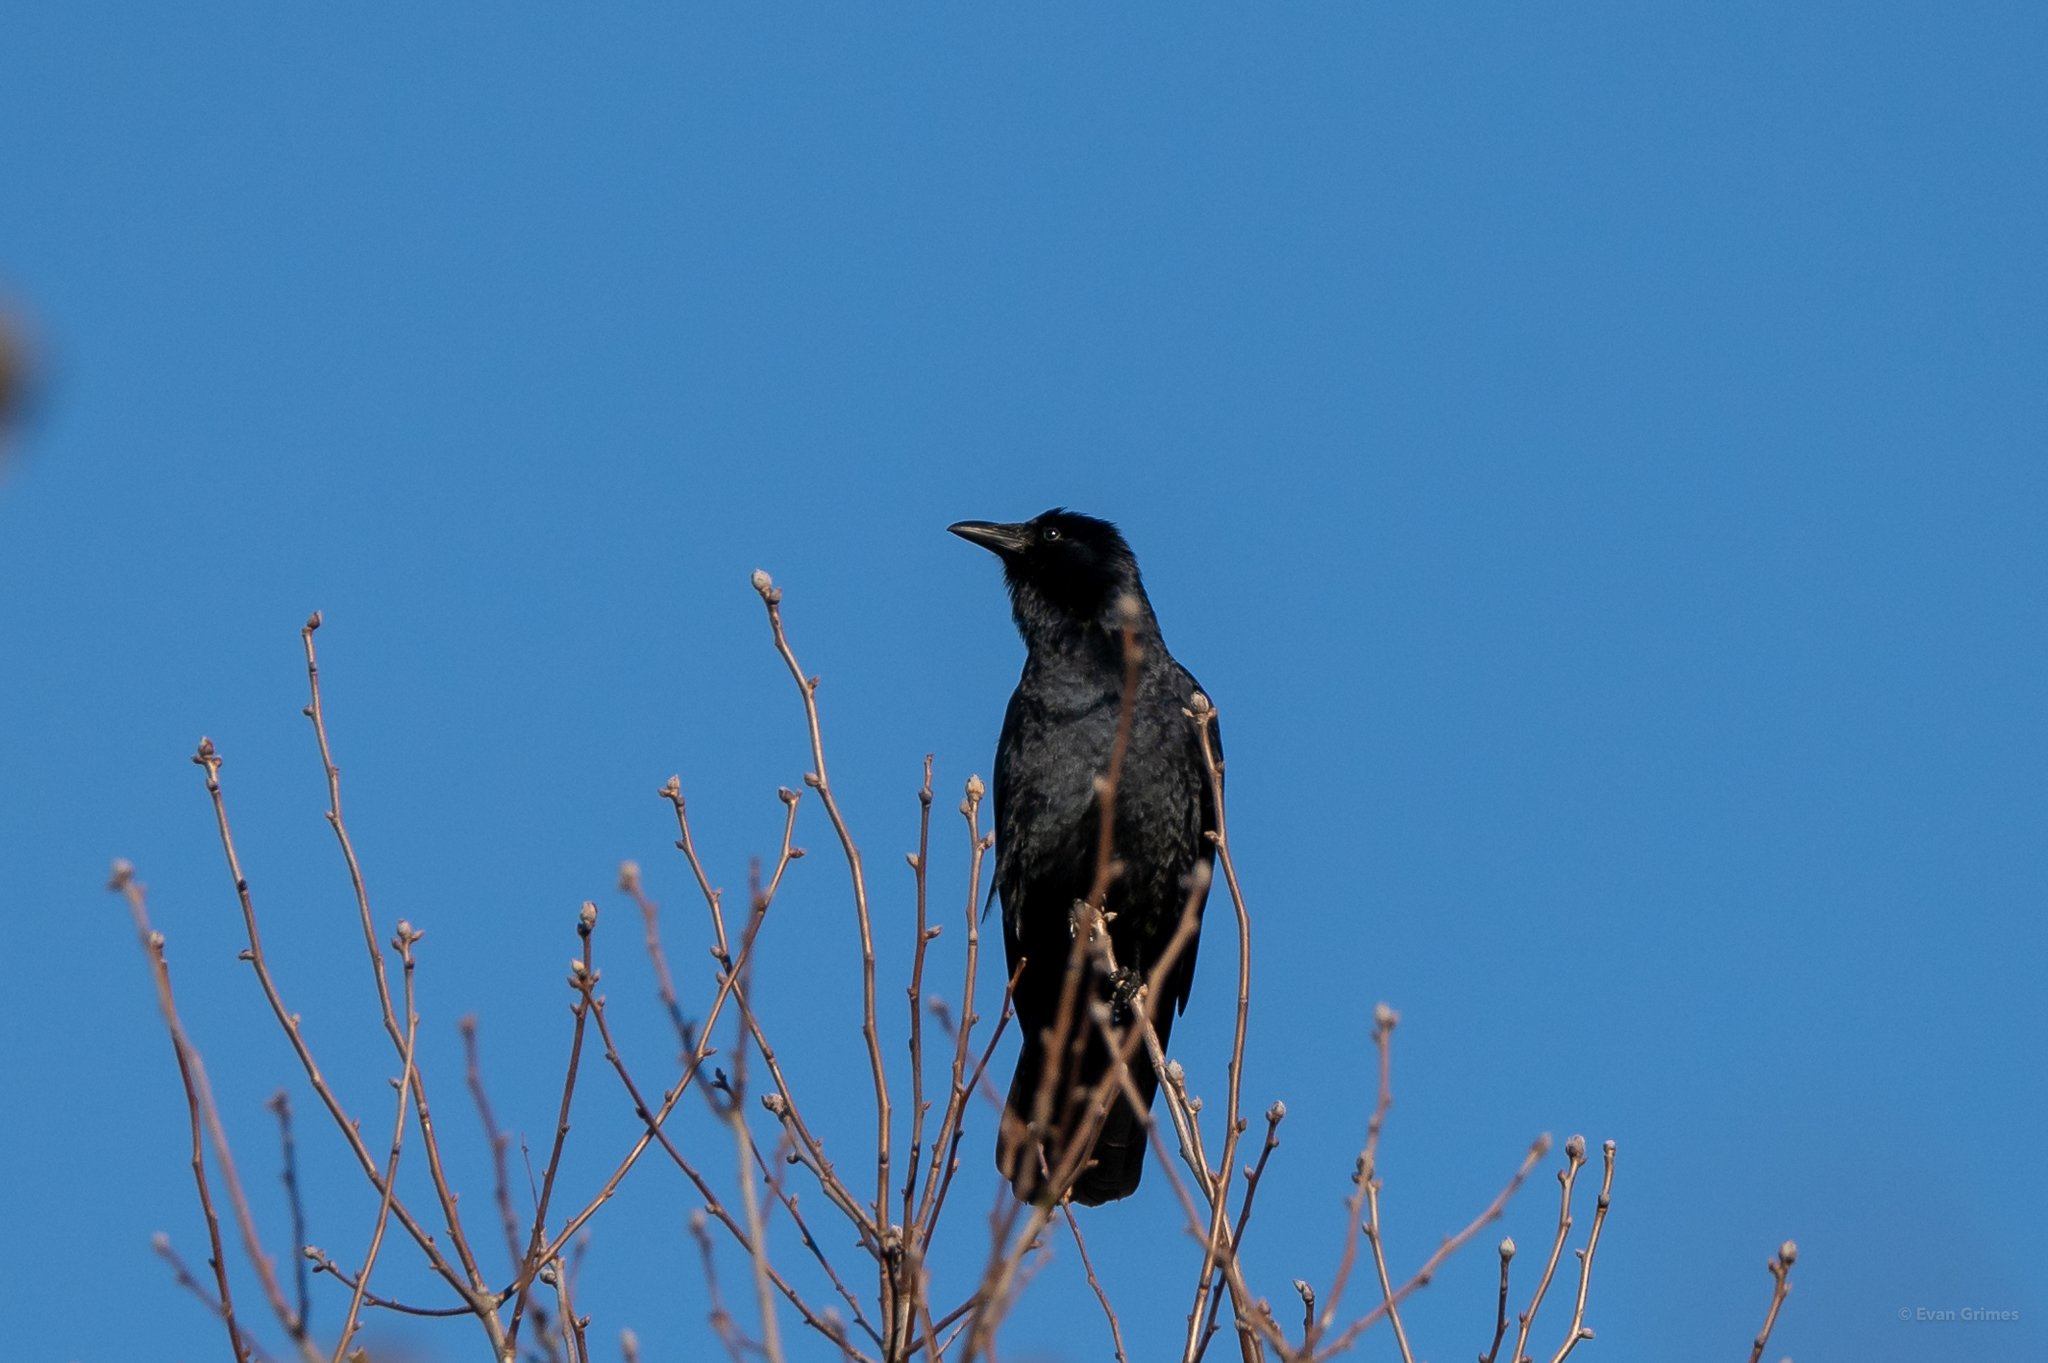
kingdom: Animalia
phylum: Chordata
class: Aves
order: Passeriformes
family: Corvidae
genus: Corvus
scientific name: Corvus ossifragus
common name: Fish crow
